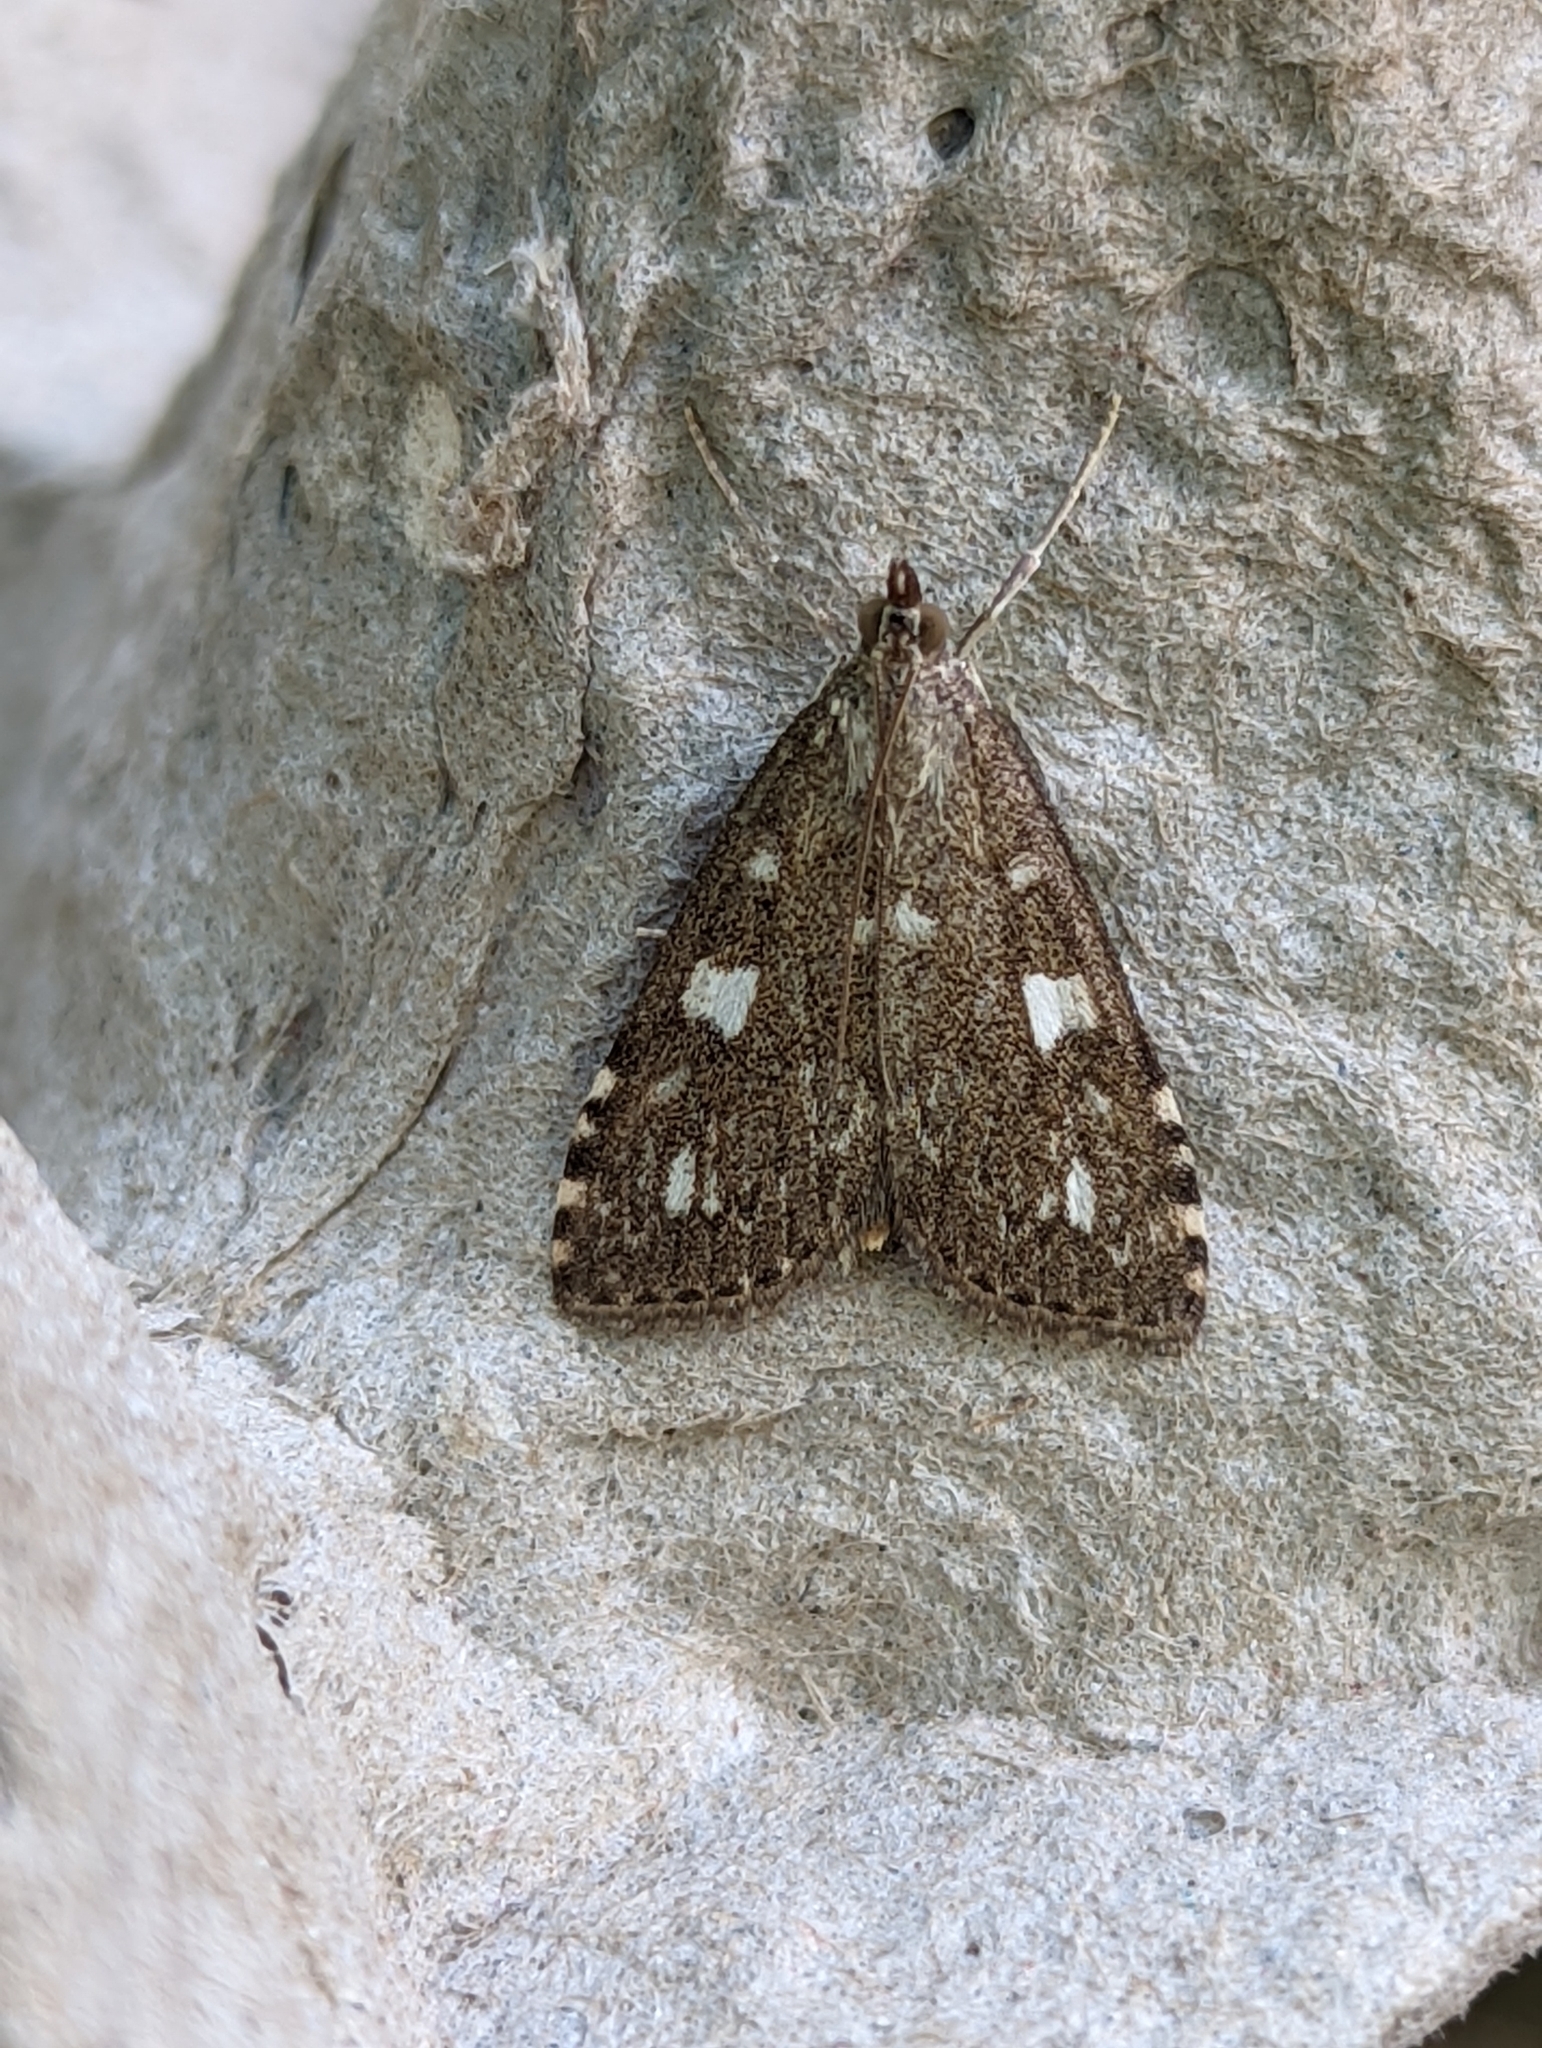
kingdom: Animalia
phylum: Arthropoda
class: Insecta
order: Lepidoptera
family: Crambidae
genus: Udea
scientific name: Udea olivalis
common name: Olive pearl
